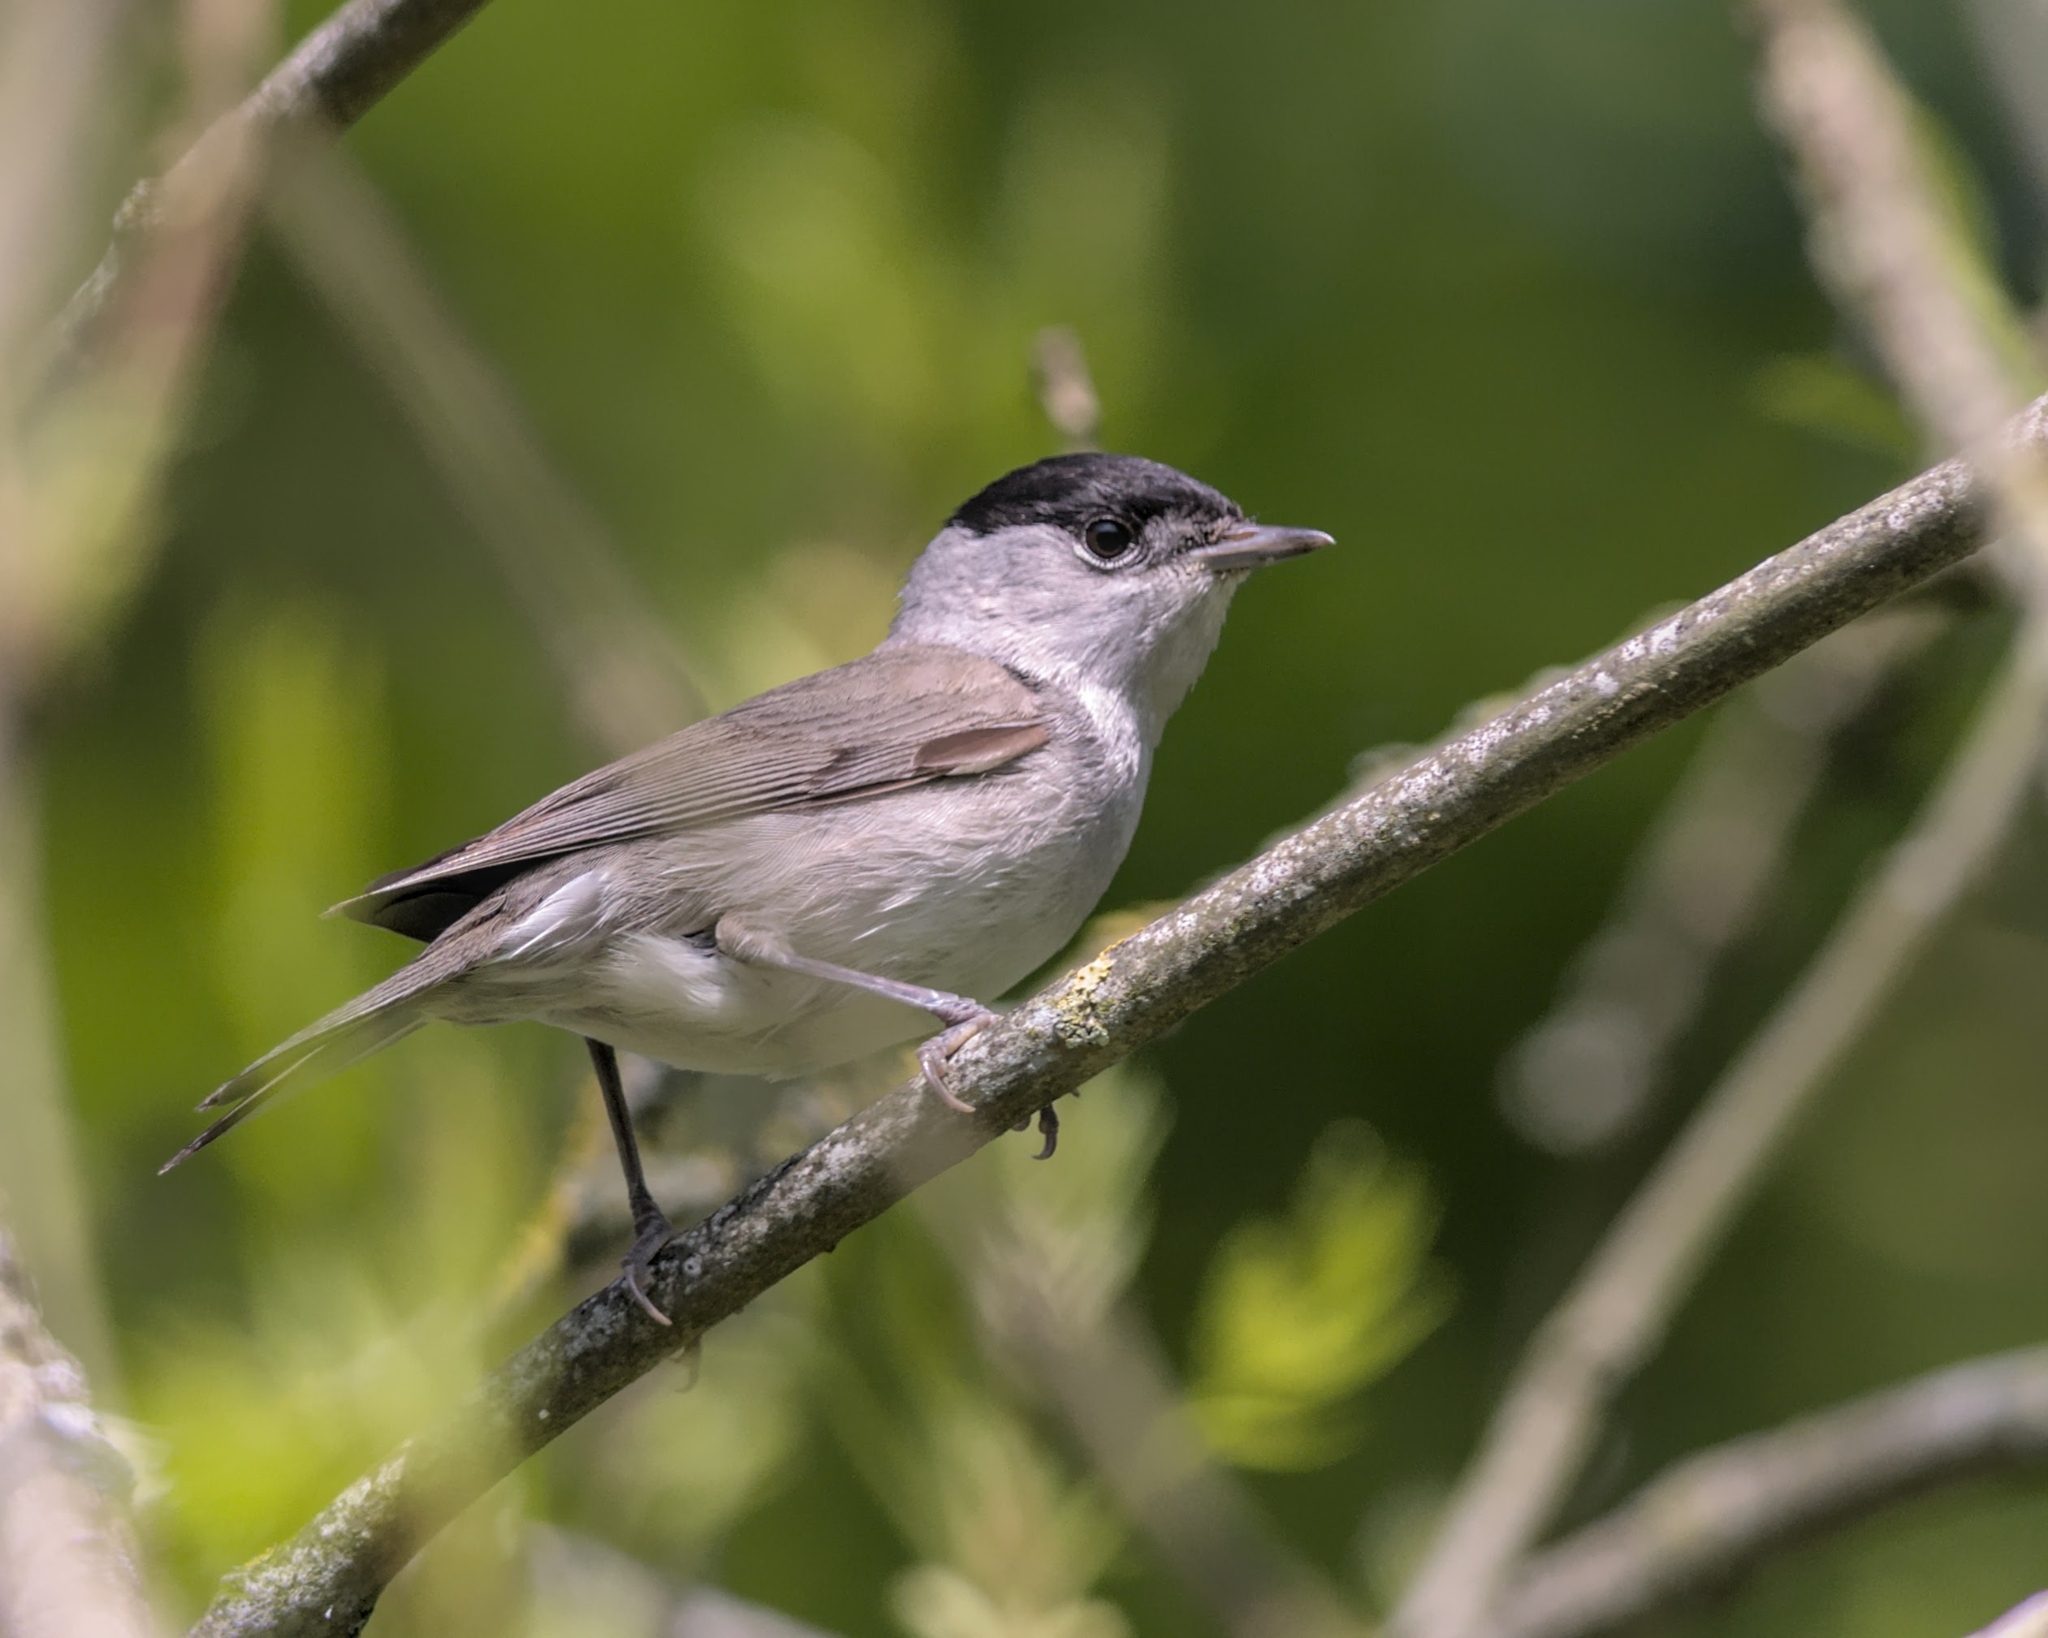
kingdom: Animalia
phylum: Chordata
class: Aves
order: Passeriformes
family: Sylviidae
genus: Sylvia
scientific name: Sylvia atricapilla
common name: Eurasian blackcap
